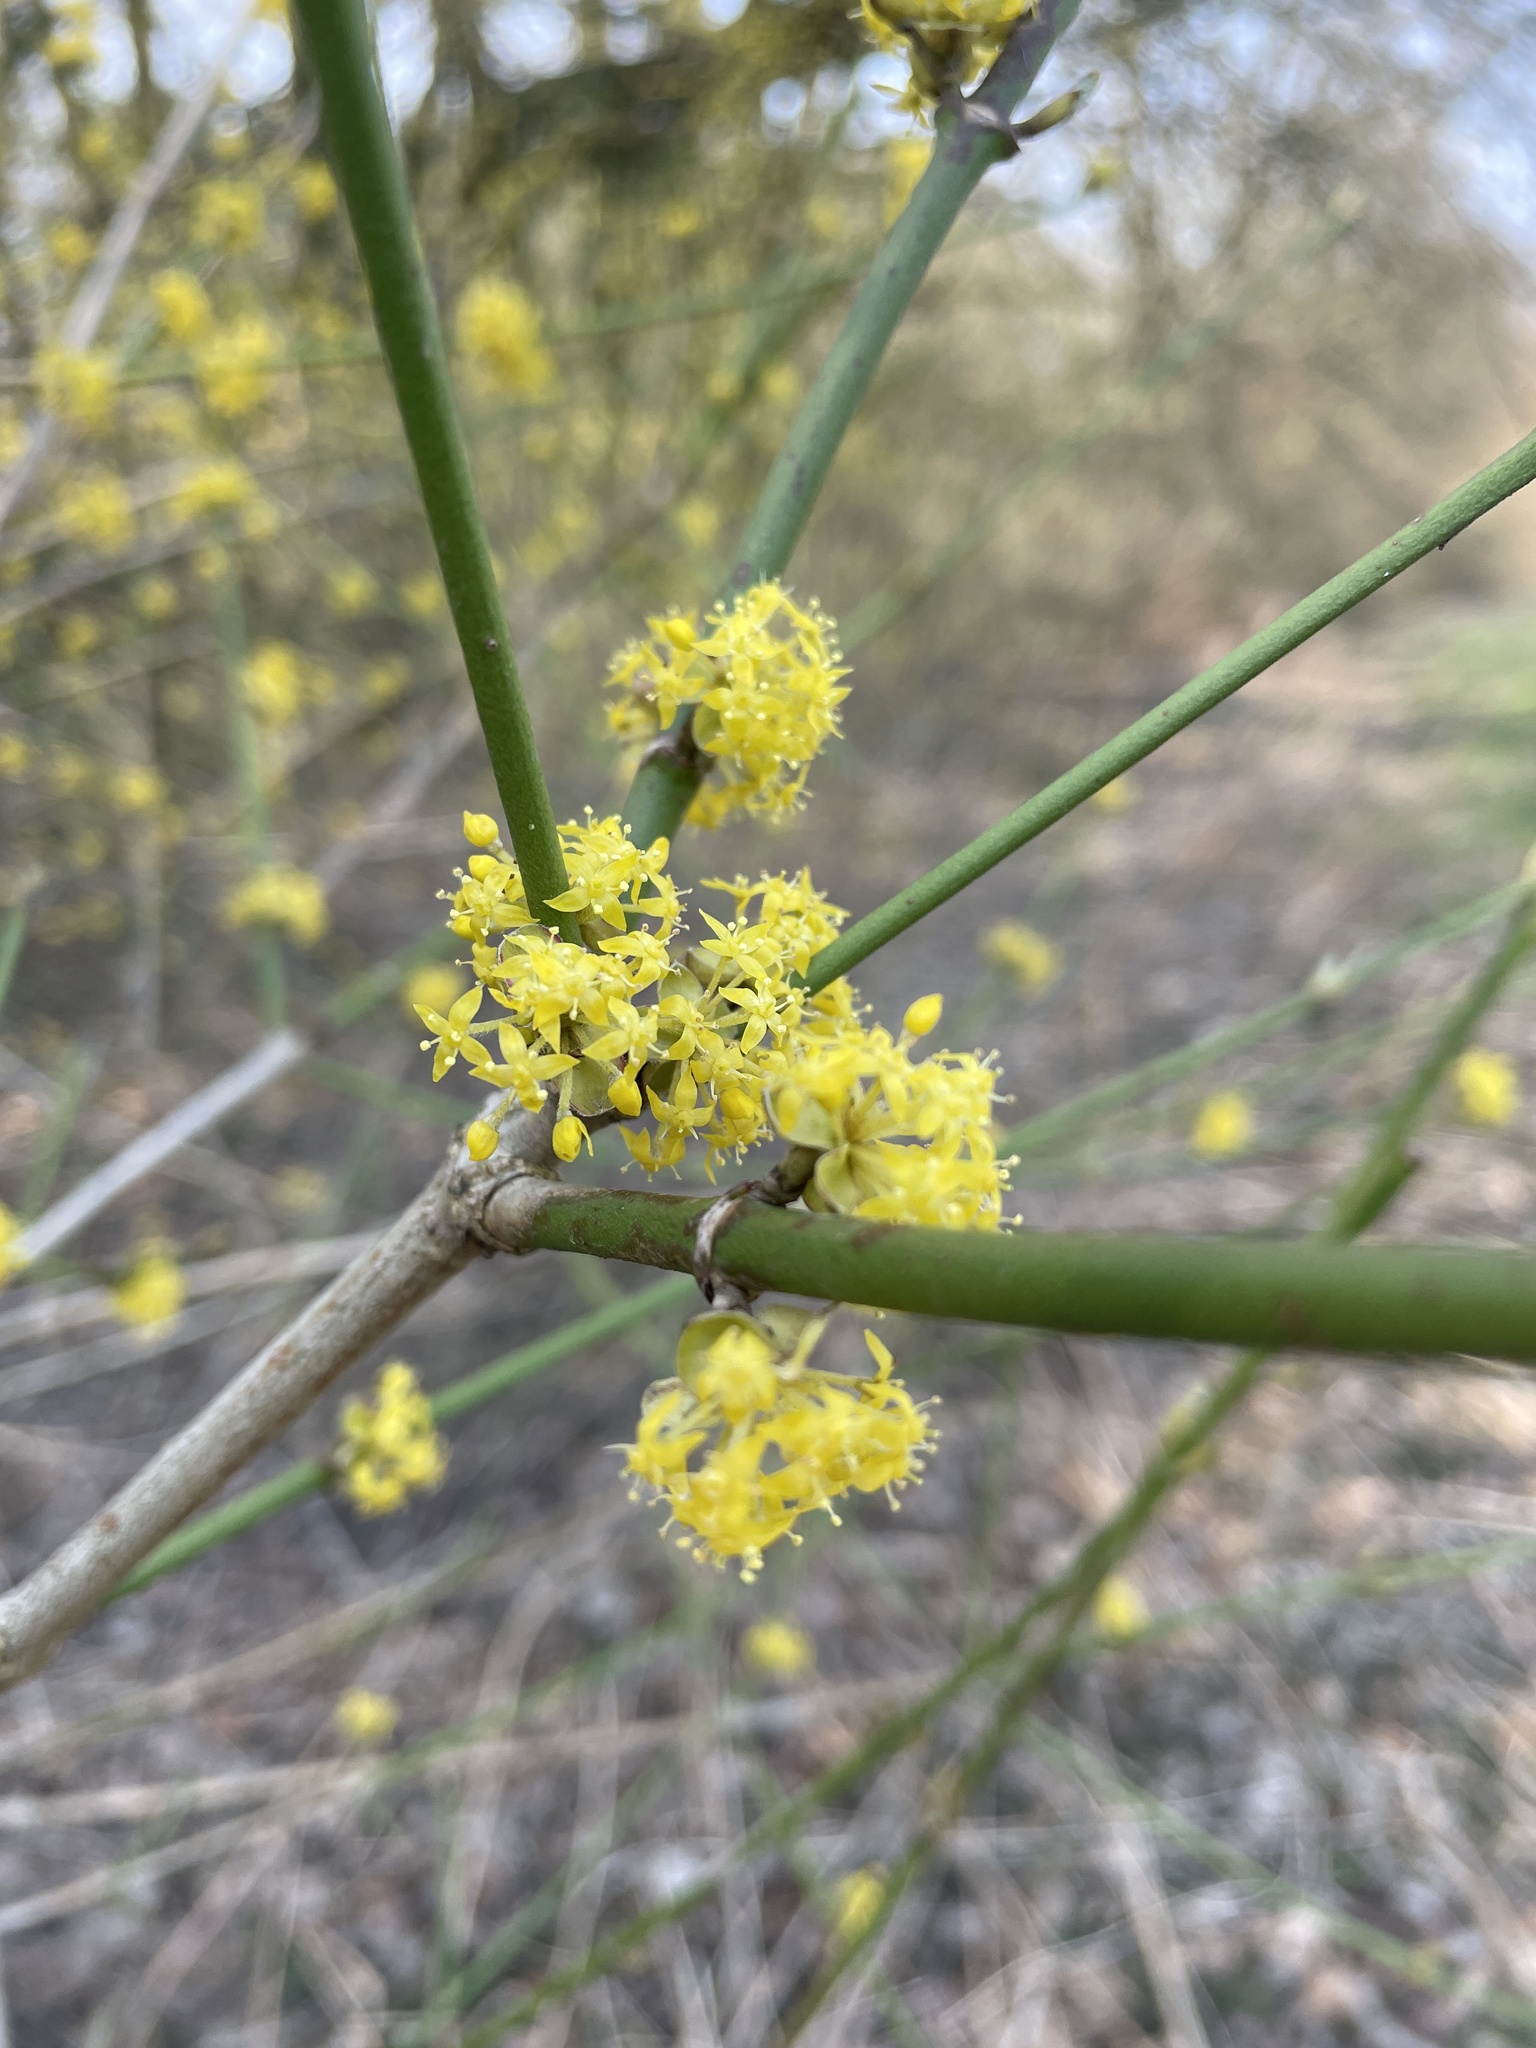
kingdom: Plantae
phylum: Tracheophyta
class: Magnoliopsida
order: Cornales
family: Cornaceae
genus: Cornus
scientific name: Cornus mas
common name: Cornelian-cherry
